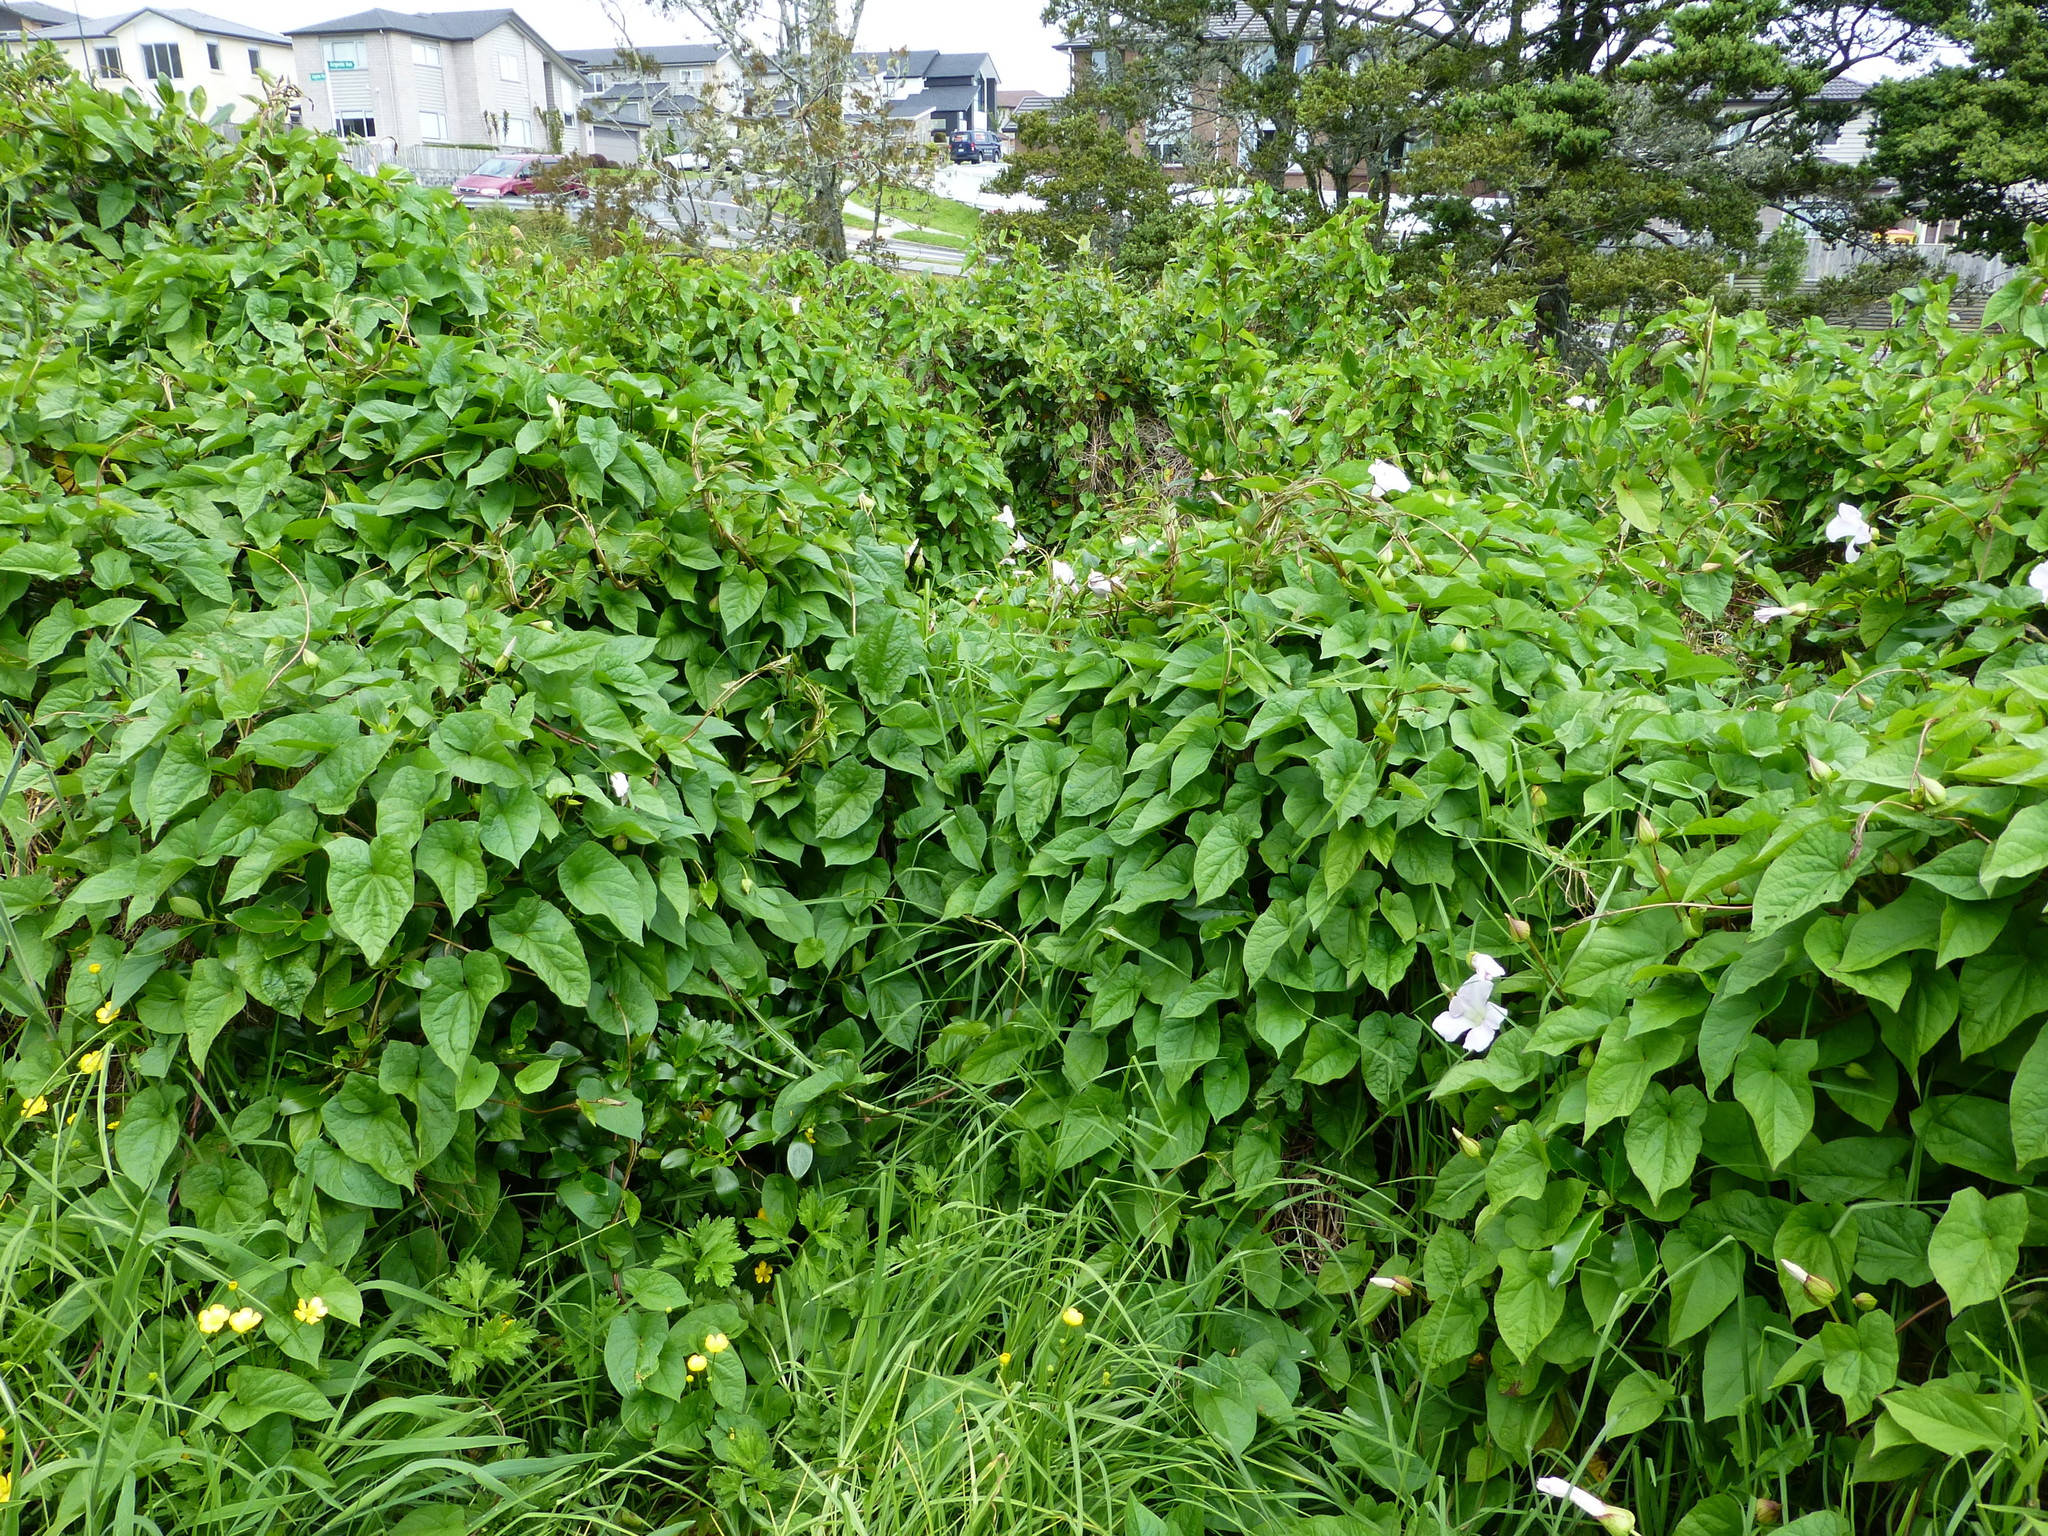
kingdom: Plantae
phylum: Tracheophyta
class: Magnoliopsida
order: Solanales
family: Convolvulaceae
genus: Calystegia
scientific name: Calystegia silvatica
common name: Large bindweed
